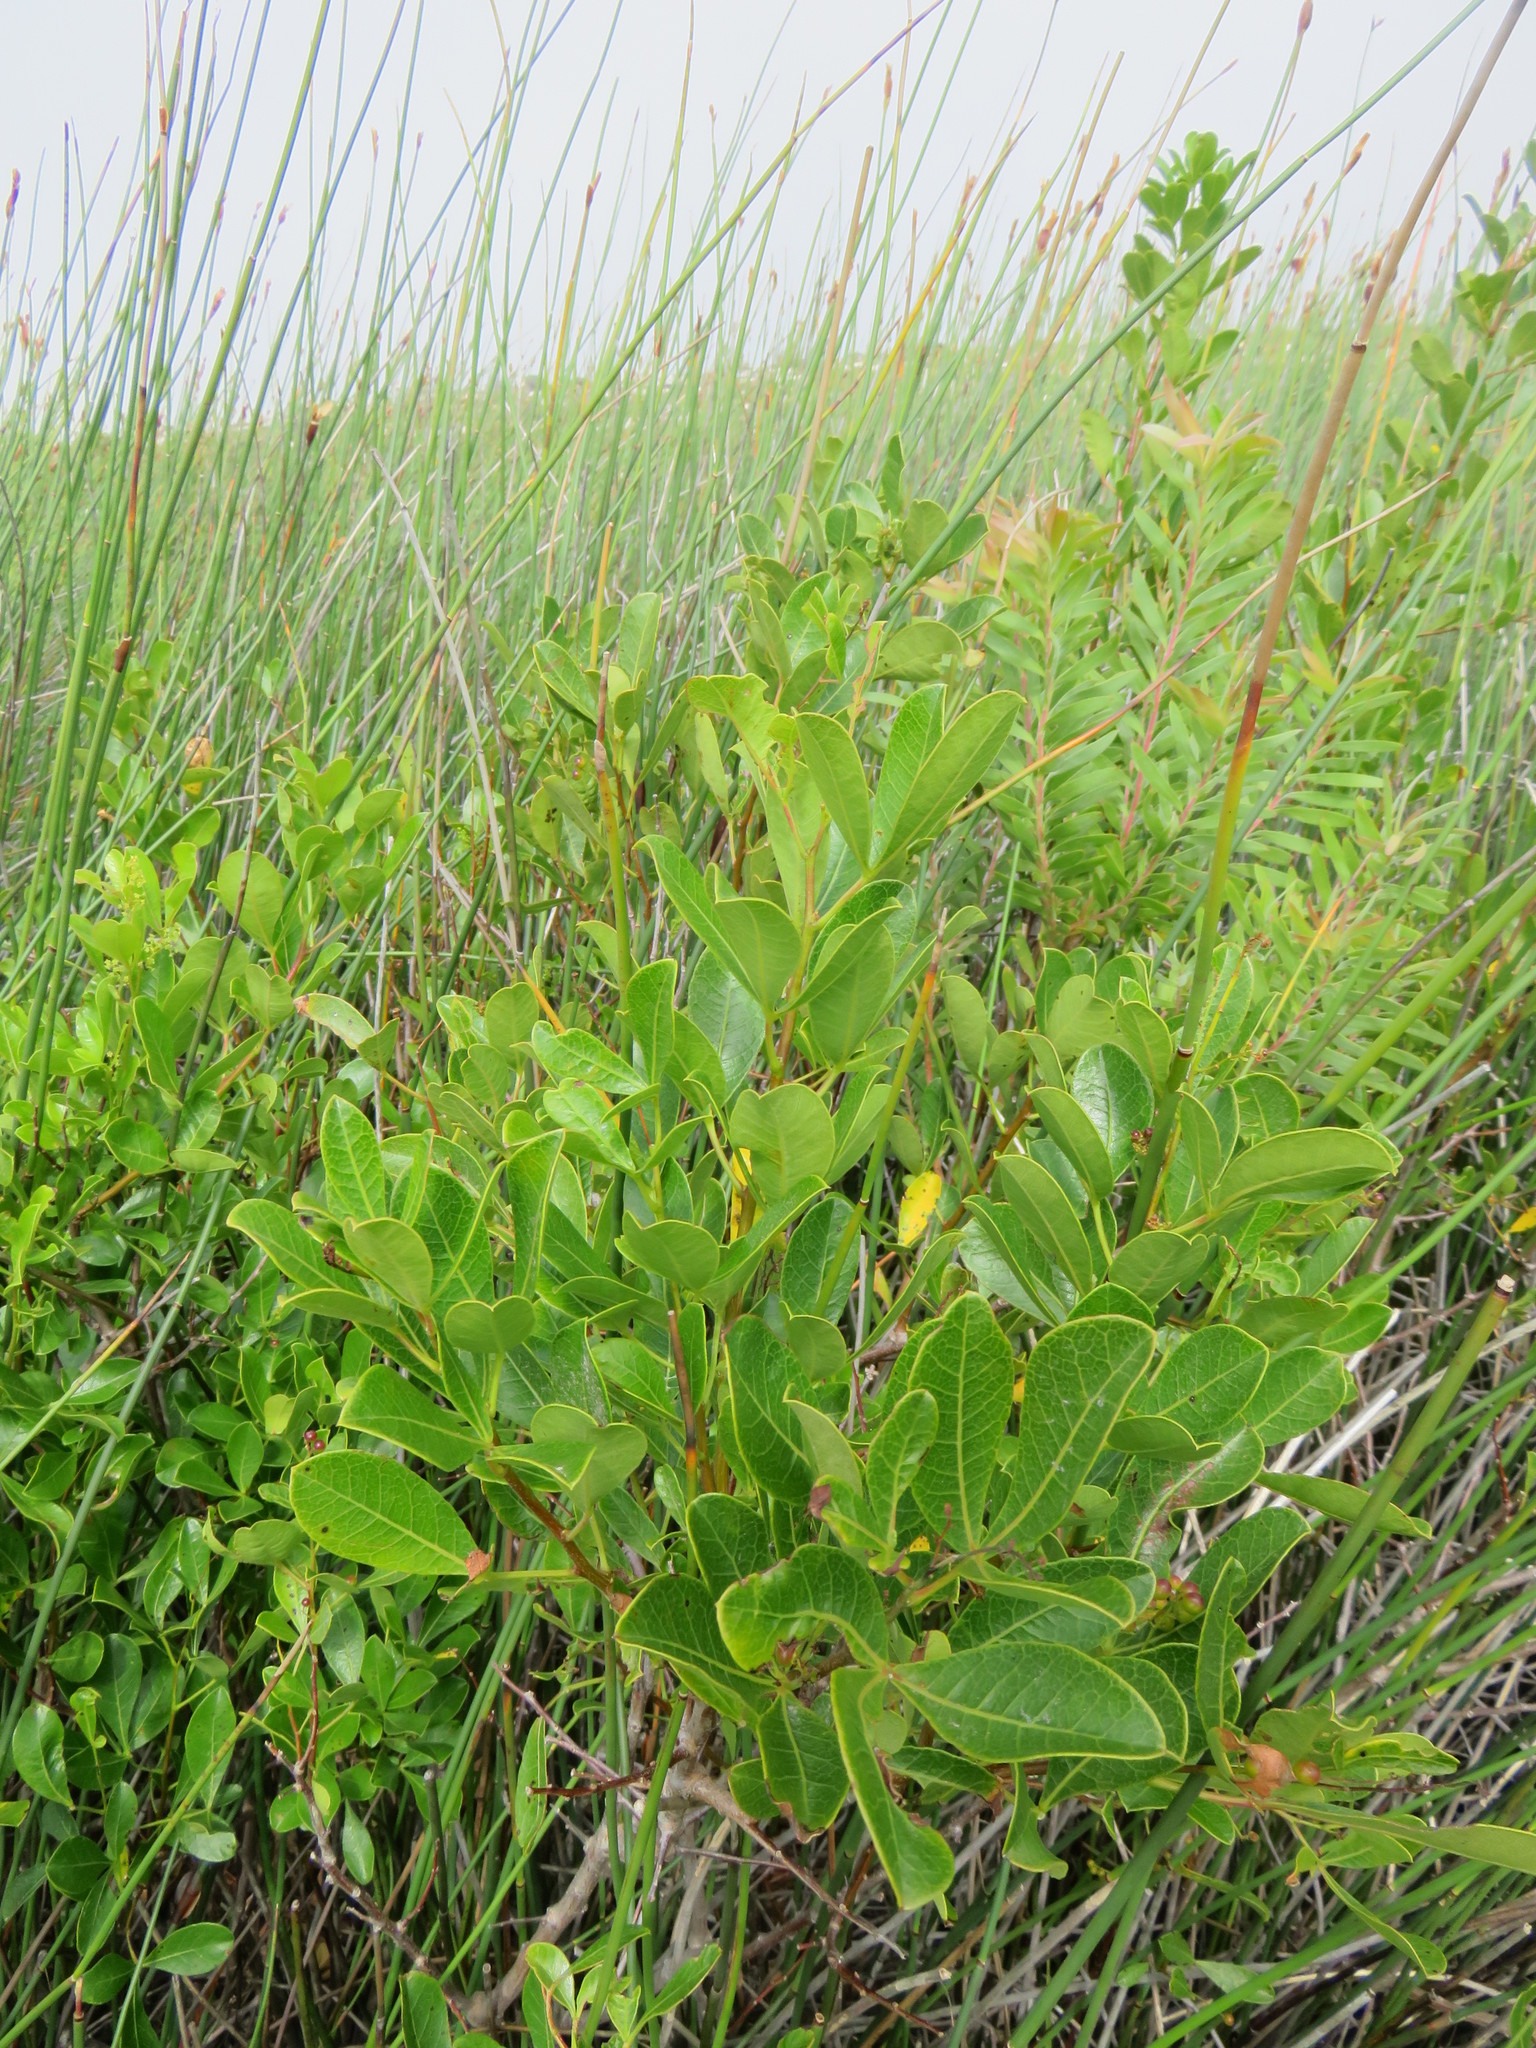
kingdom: Plantae
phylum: Tracheophyta
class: Magnoliopsida
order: Sapindales
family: Anacardiaceae
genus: Searsia
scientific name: Searsia laevigata
